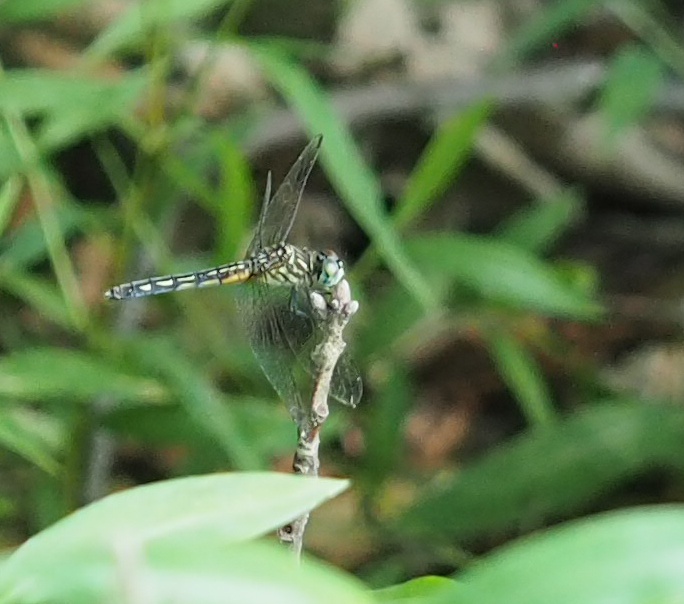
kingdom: Animalia
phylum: Arthropoda
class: Insecta
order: Odonata
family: Libellulidae
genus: Pachydiplax
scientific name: Pachydiplax longipennis
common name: Blue dasher
